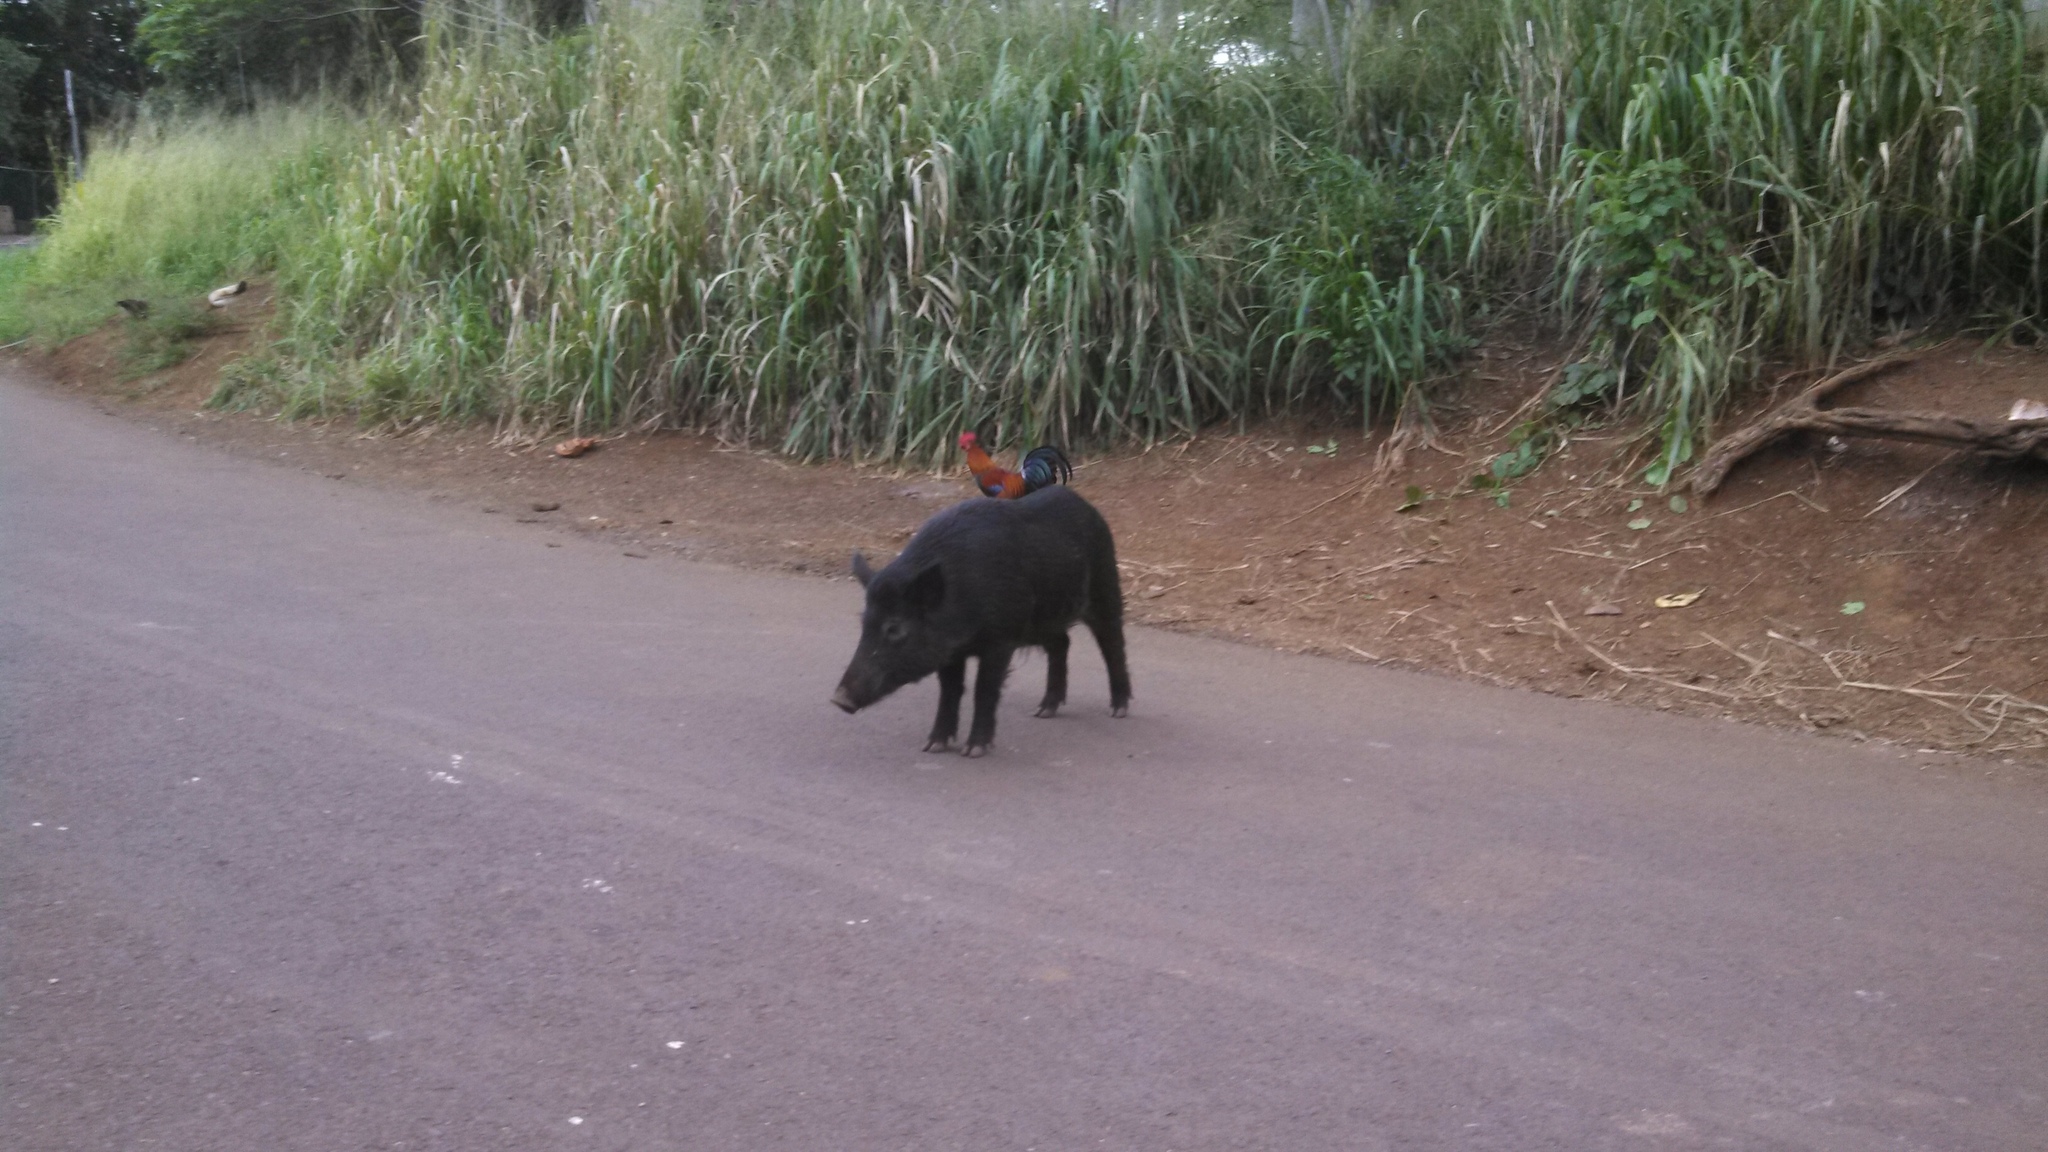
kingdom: Animalia
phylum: Chordata
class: Mammalia
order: Artiodactyla
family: Suidae
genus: Sus
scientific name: Sus scrofa
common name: Wild boar
